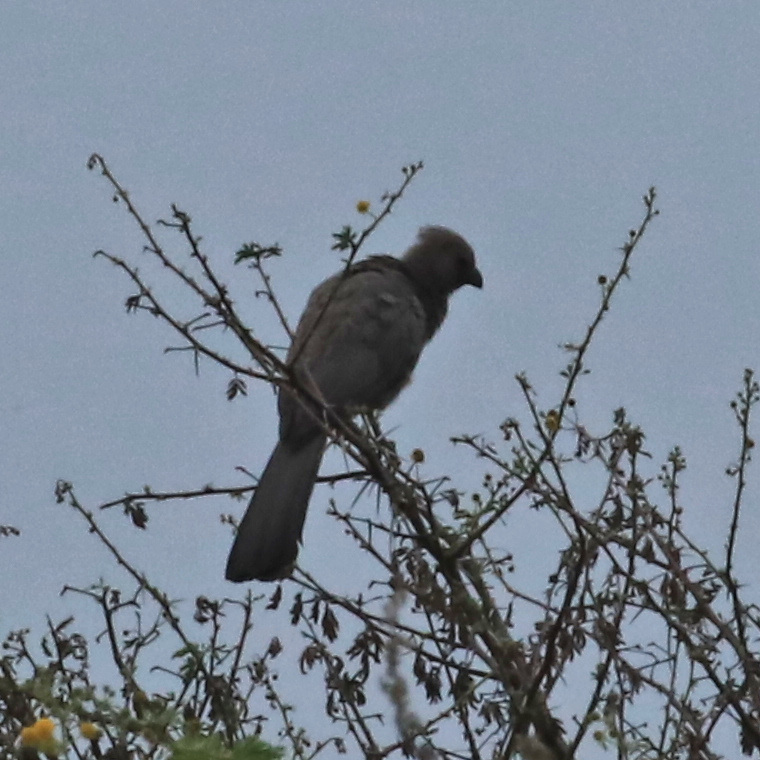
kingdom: Animalia
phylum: Chordata
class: Aves
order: Musophagiformes
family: Musophagidae
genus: Corythaixoides
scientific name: Corythaixoides concolor
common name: Grey go-away-bird
